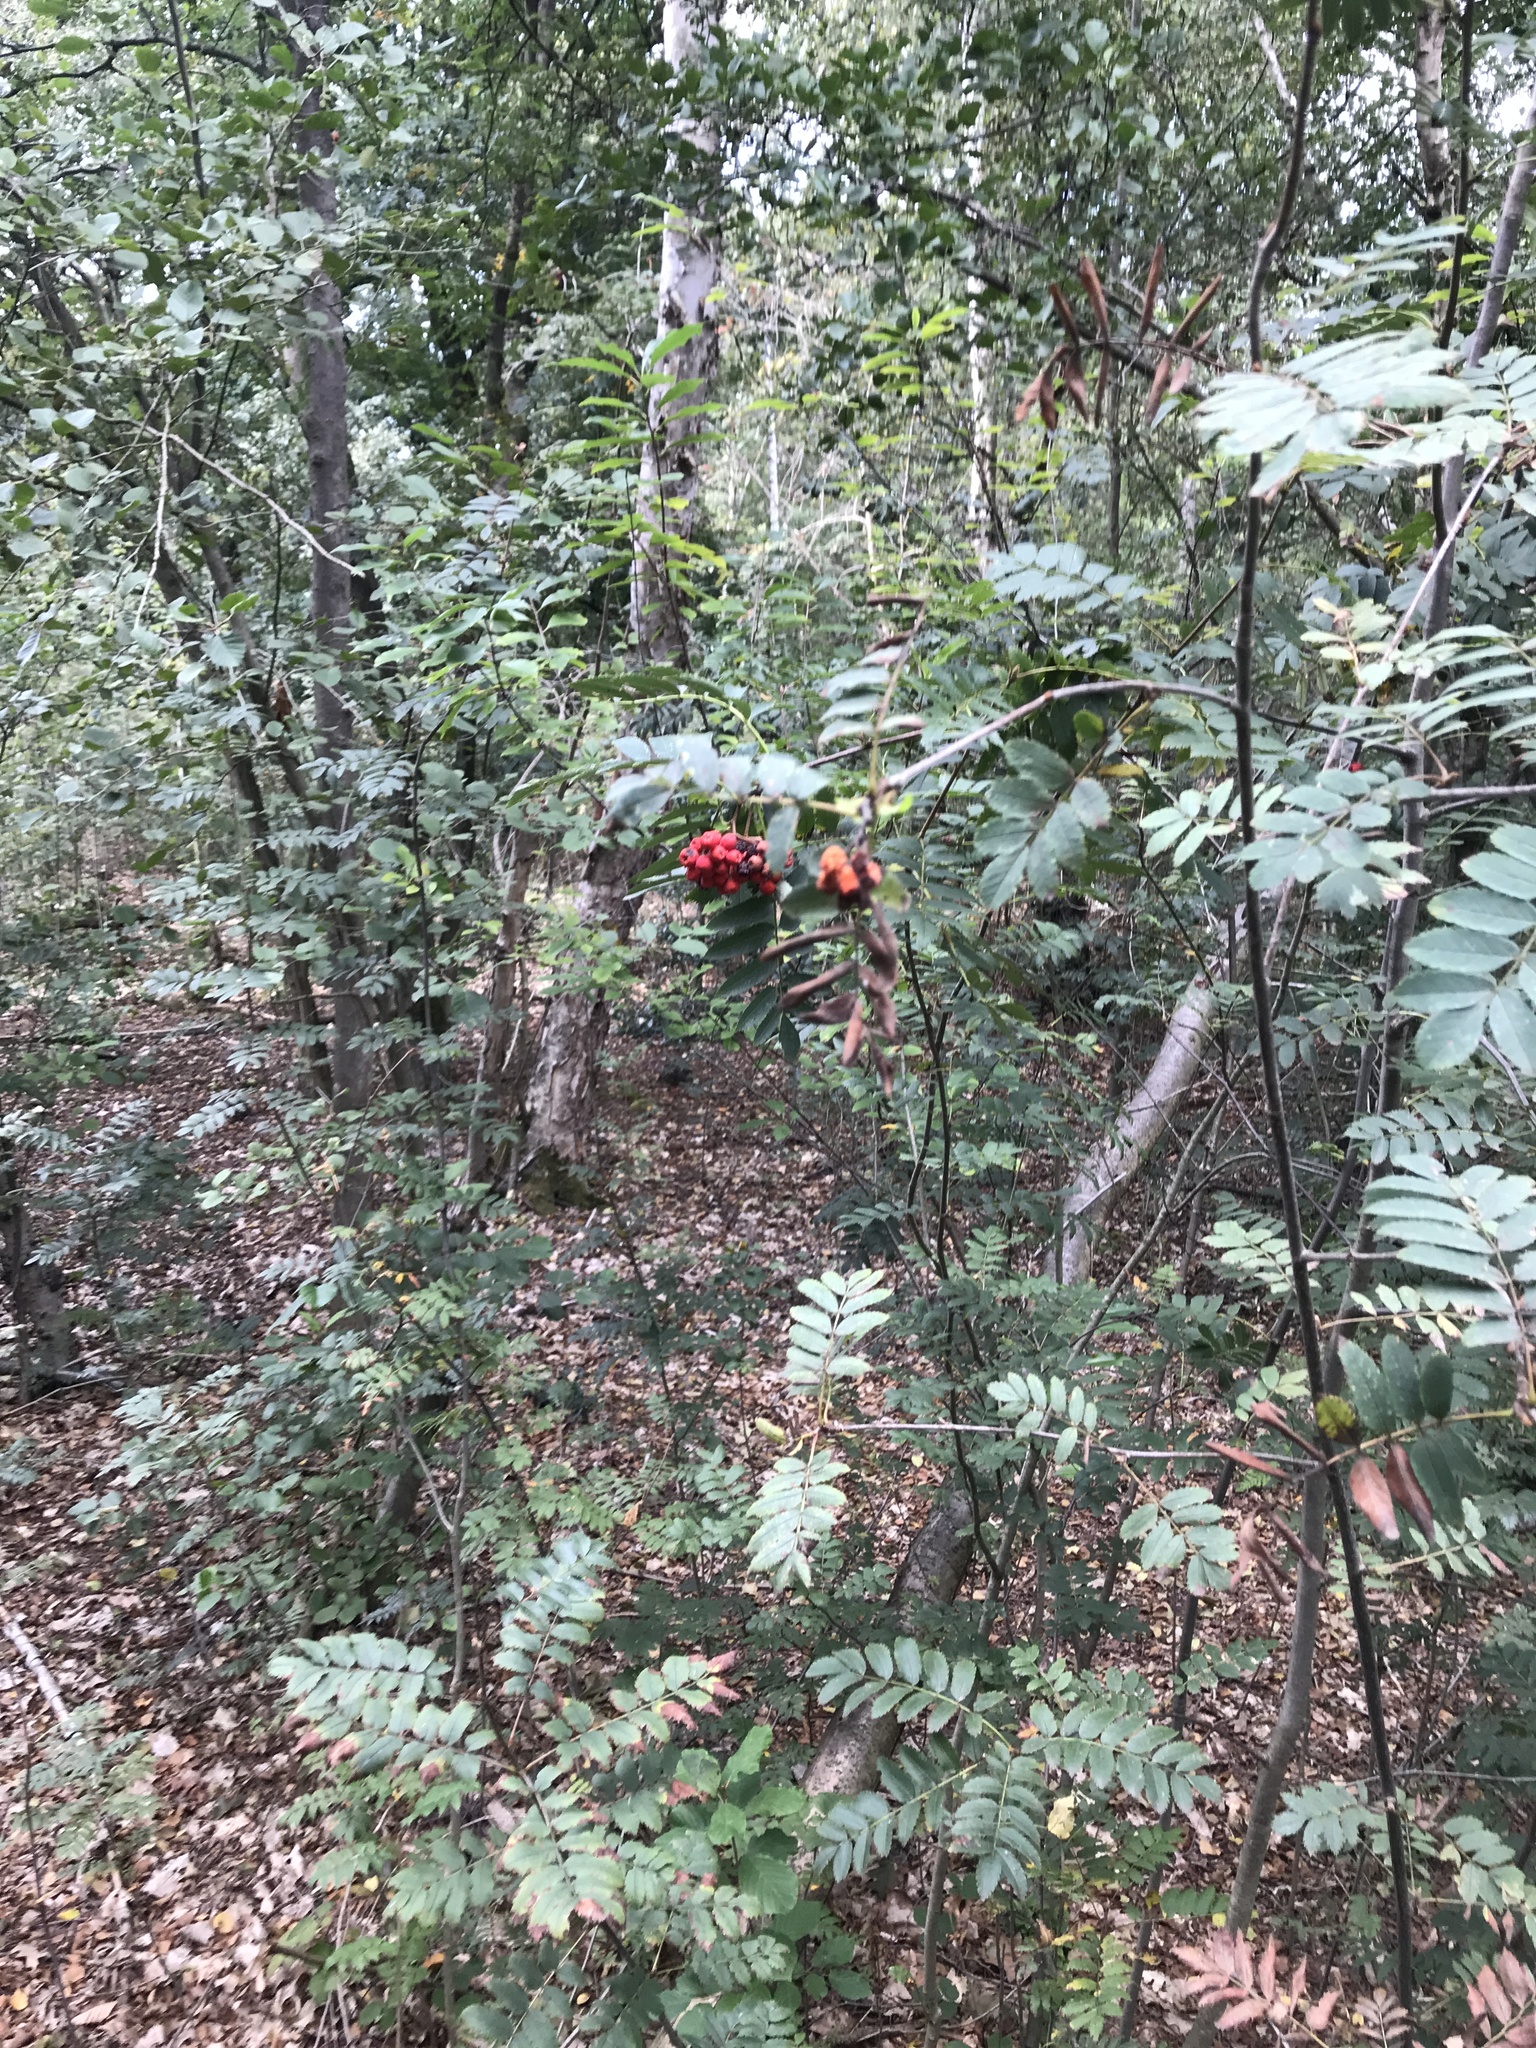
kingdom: Plantae
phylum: Tracheophyta
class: Magnoliopsida
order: Rosales
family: Rosaceae
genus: Sorbus
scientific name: Sorbus aucuparia
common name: Rowan
